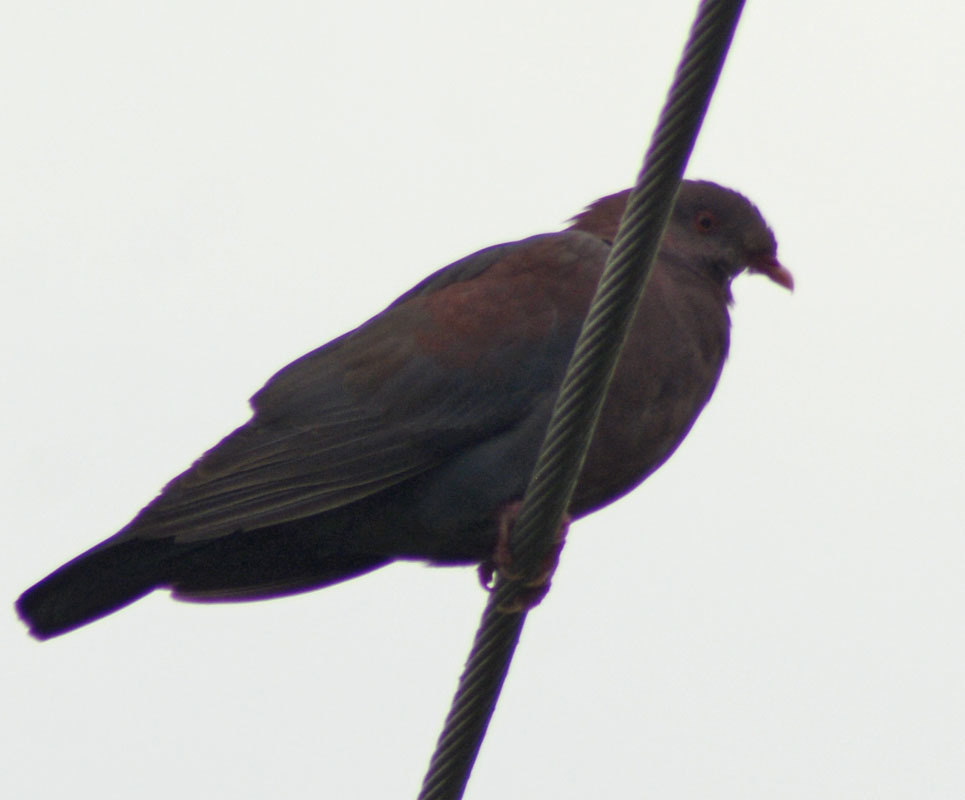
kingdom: Animalia
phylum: Chordata
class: Aves
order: Columbiformes
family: Columbidae
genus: Patagioenas
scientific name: Patagioenas flavirostris
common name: Red-billed pigeon
